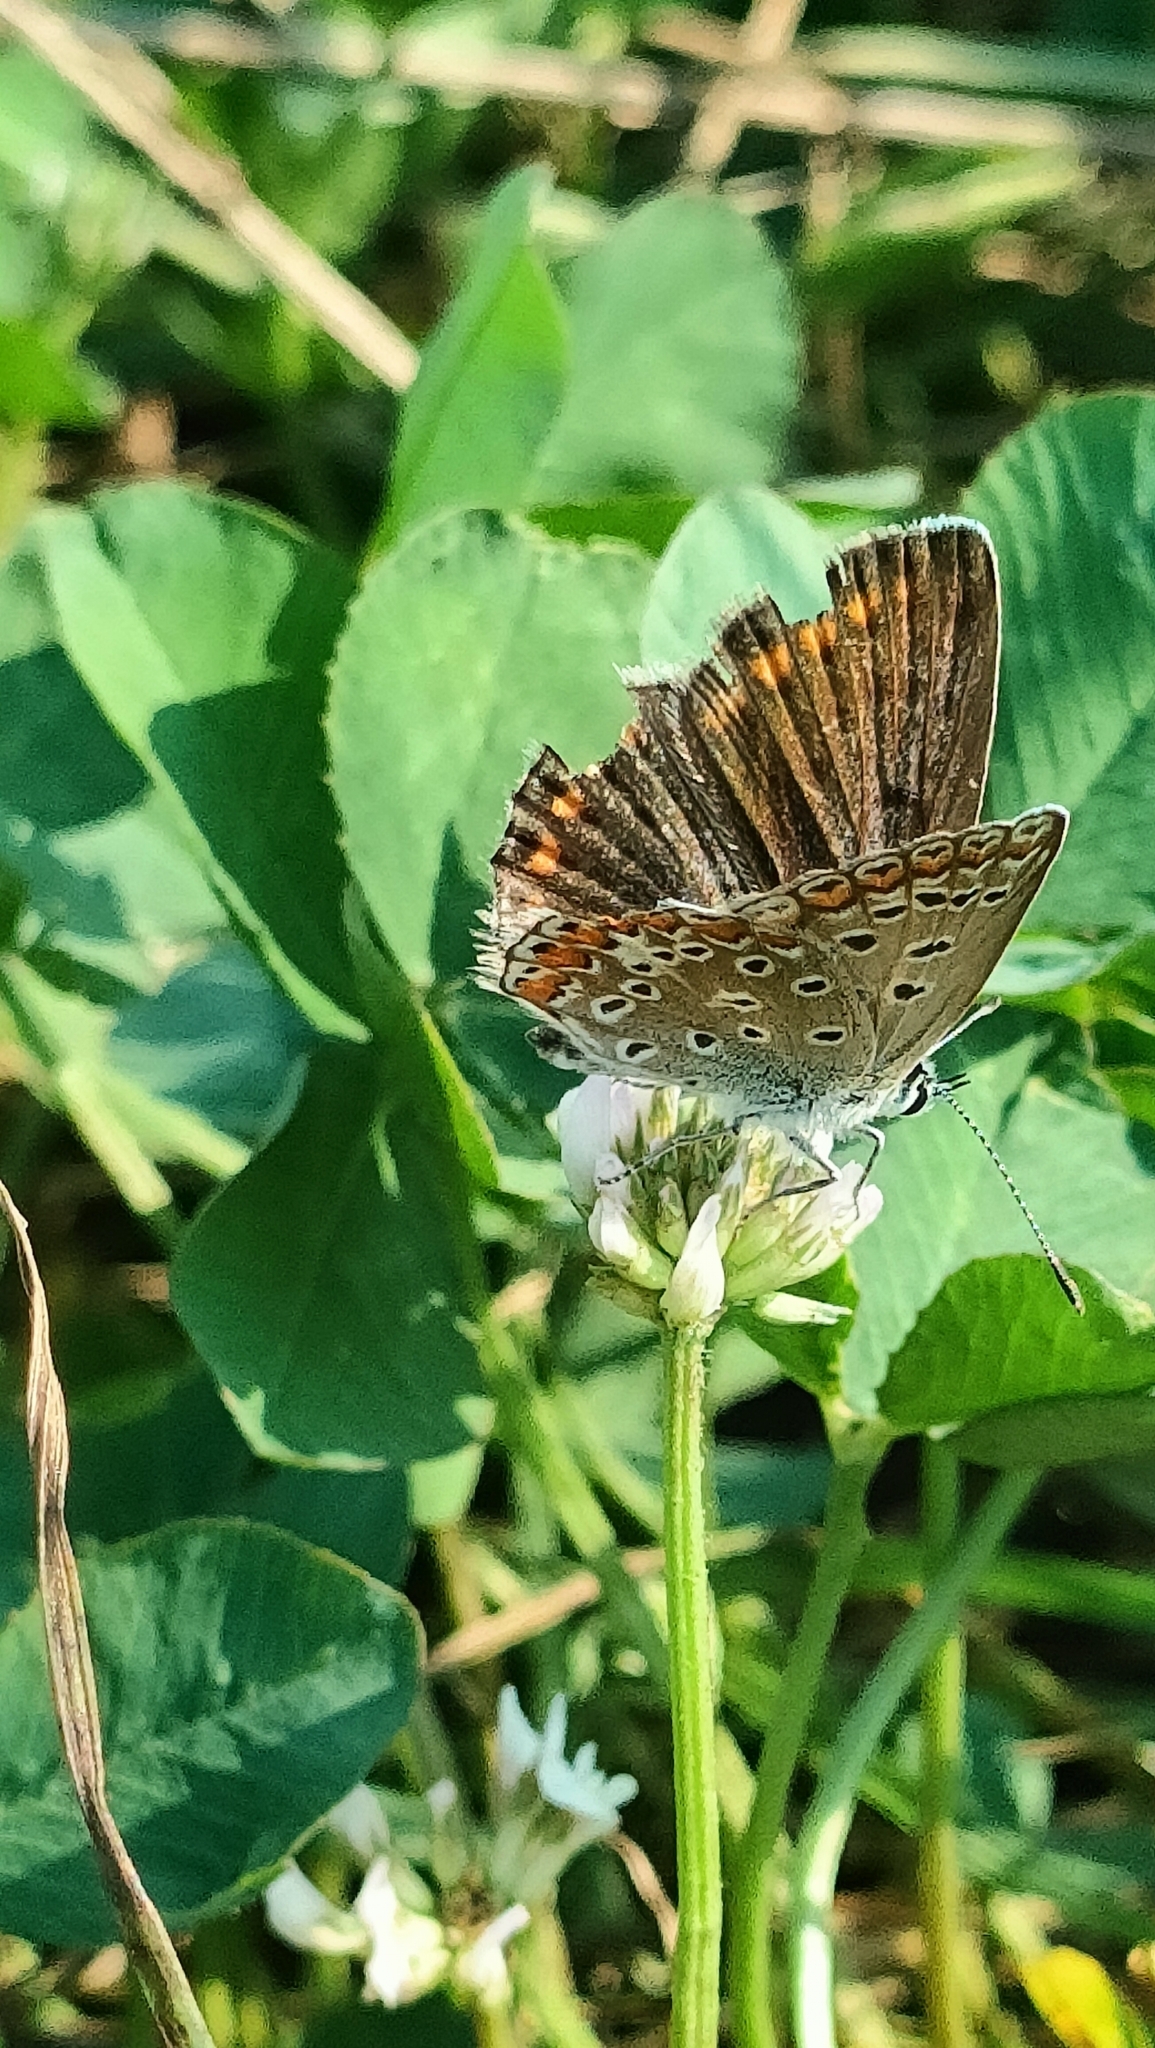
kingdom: Animalia
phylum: Arthropoda
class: Insecta
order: Lepidoptera
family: Lycaenidae
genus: Polyommatus
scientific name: Polyommatus icarus
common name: Common blue
